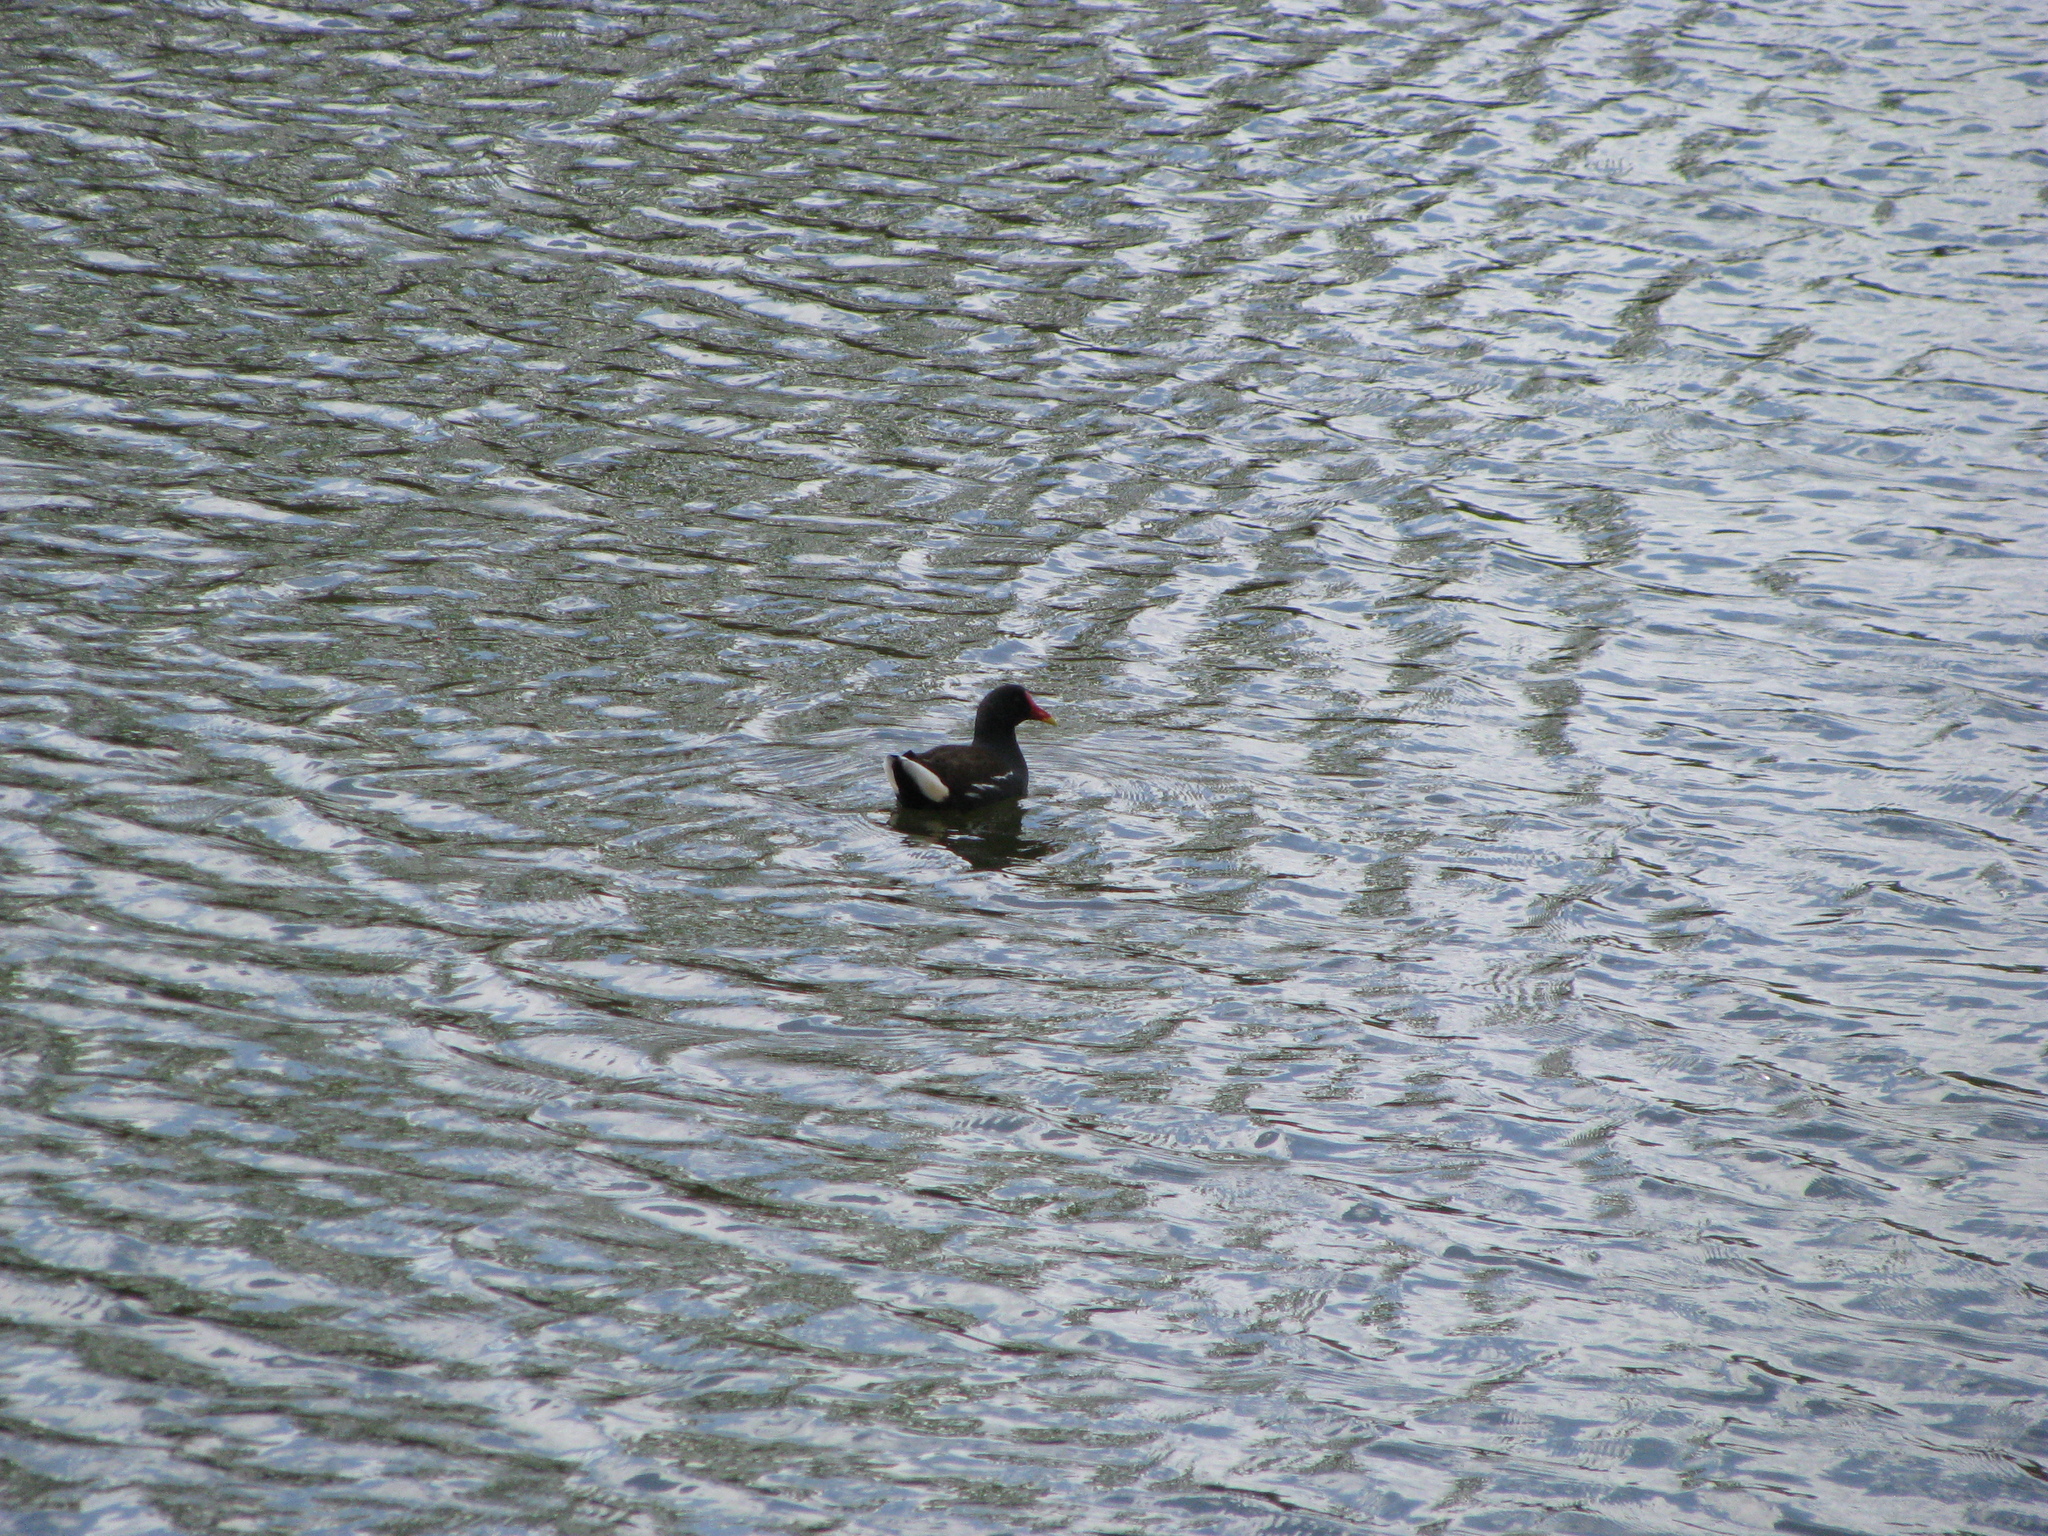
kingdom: Animalia
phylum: Chordata
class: Aves
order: Gruiformes
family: Rallidae
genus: Gallinula
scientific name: Gallinula chloropus
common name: Common moorhen
